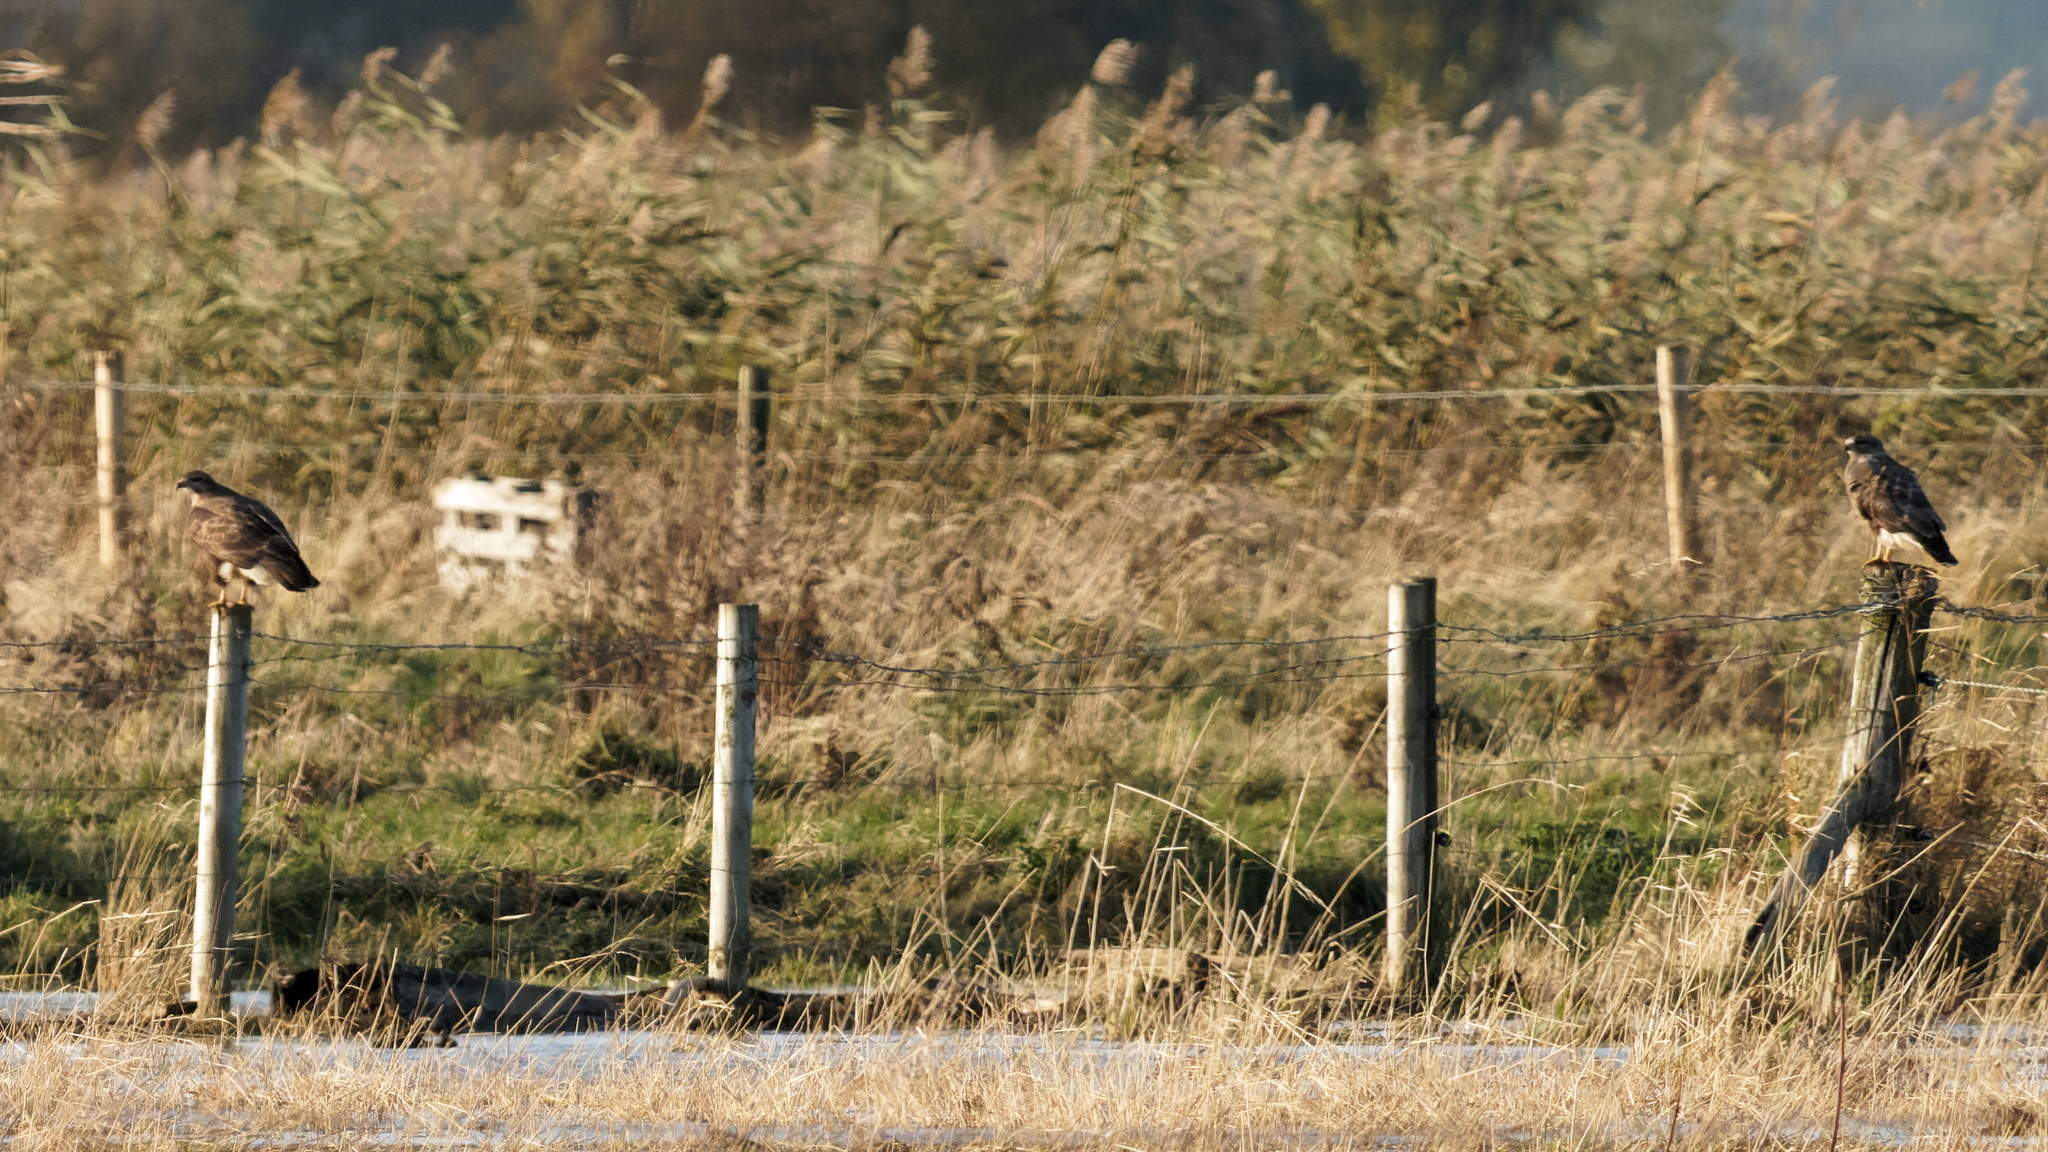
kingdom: Animalia
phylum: Chordata
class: Aves
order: Accipitriformes
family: Accipitridae
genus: Buteo
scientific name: Buteo buteo
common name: Common buzzard
